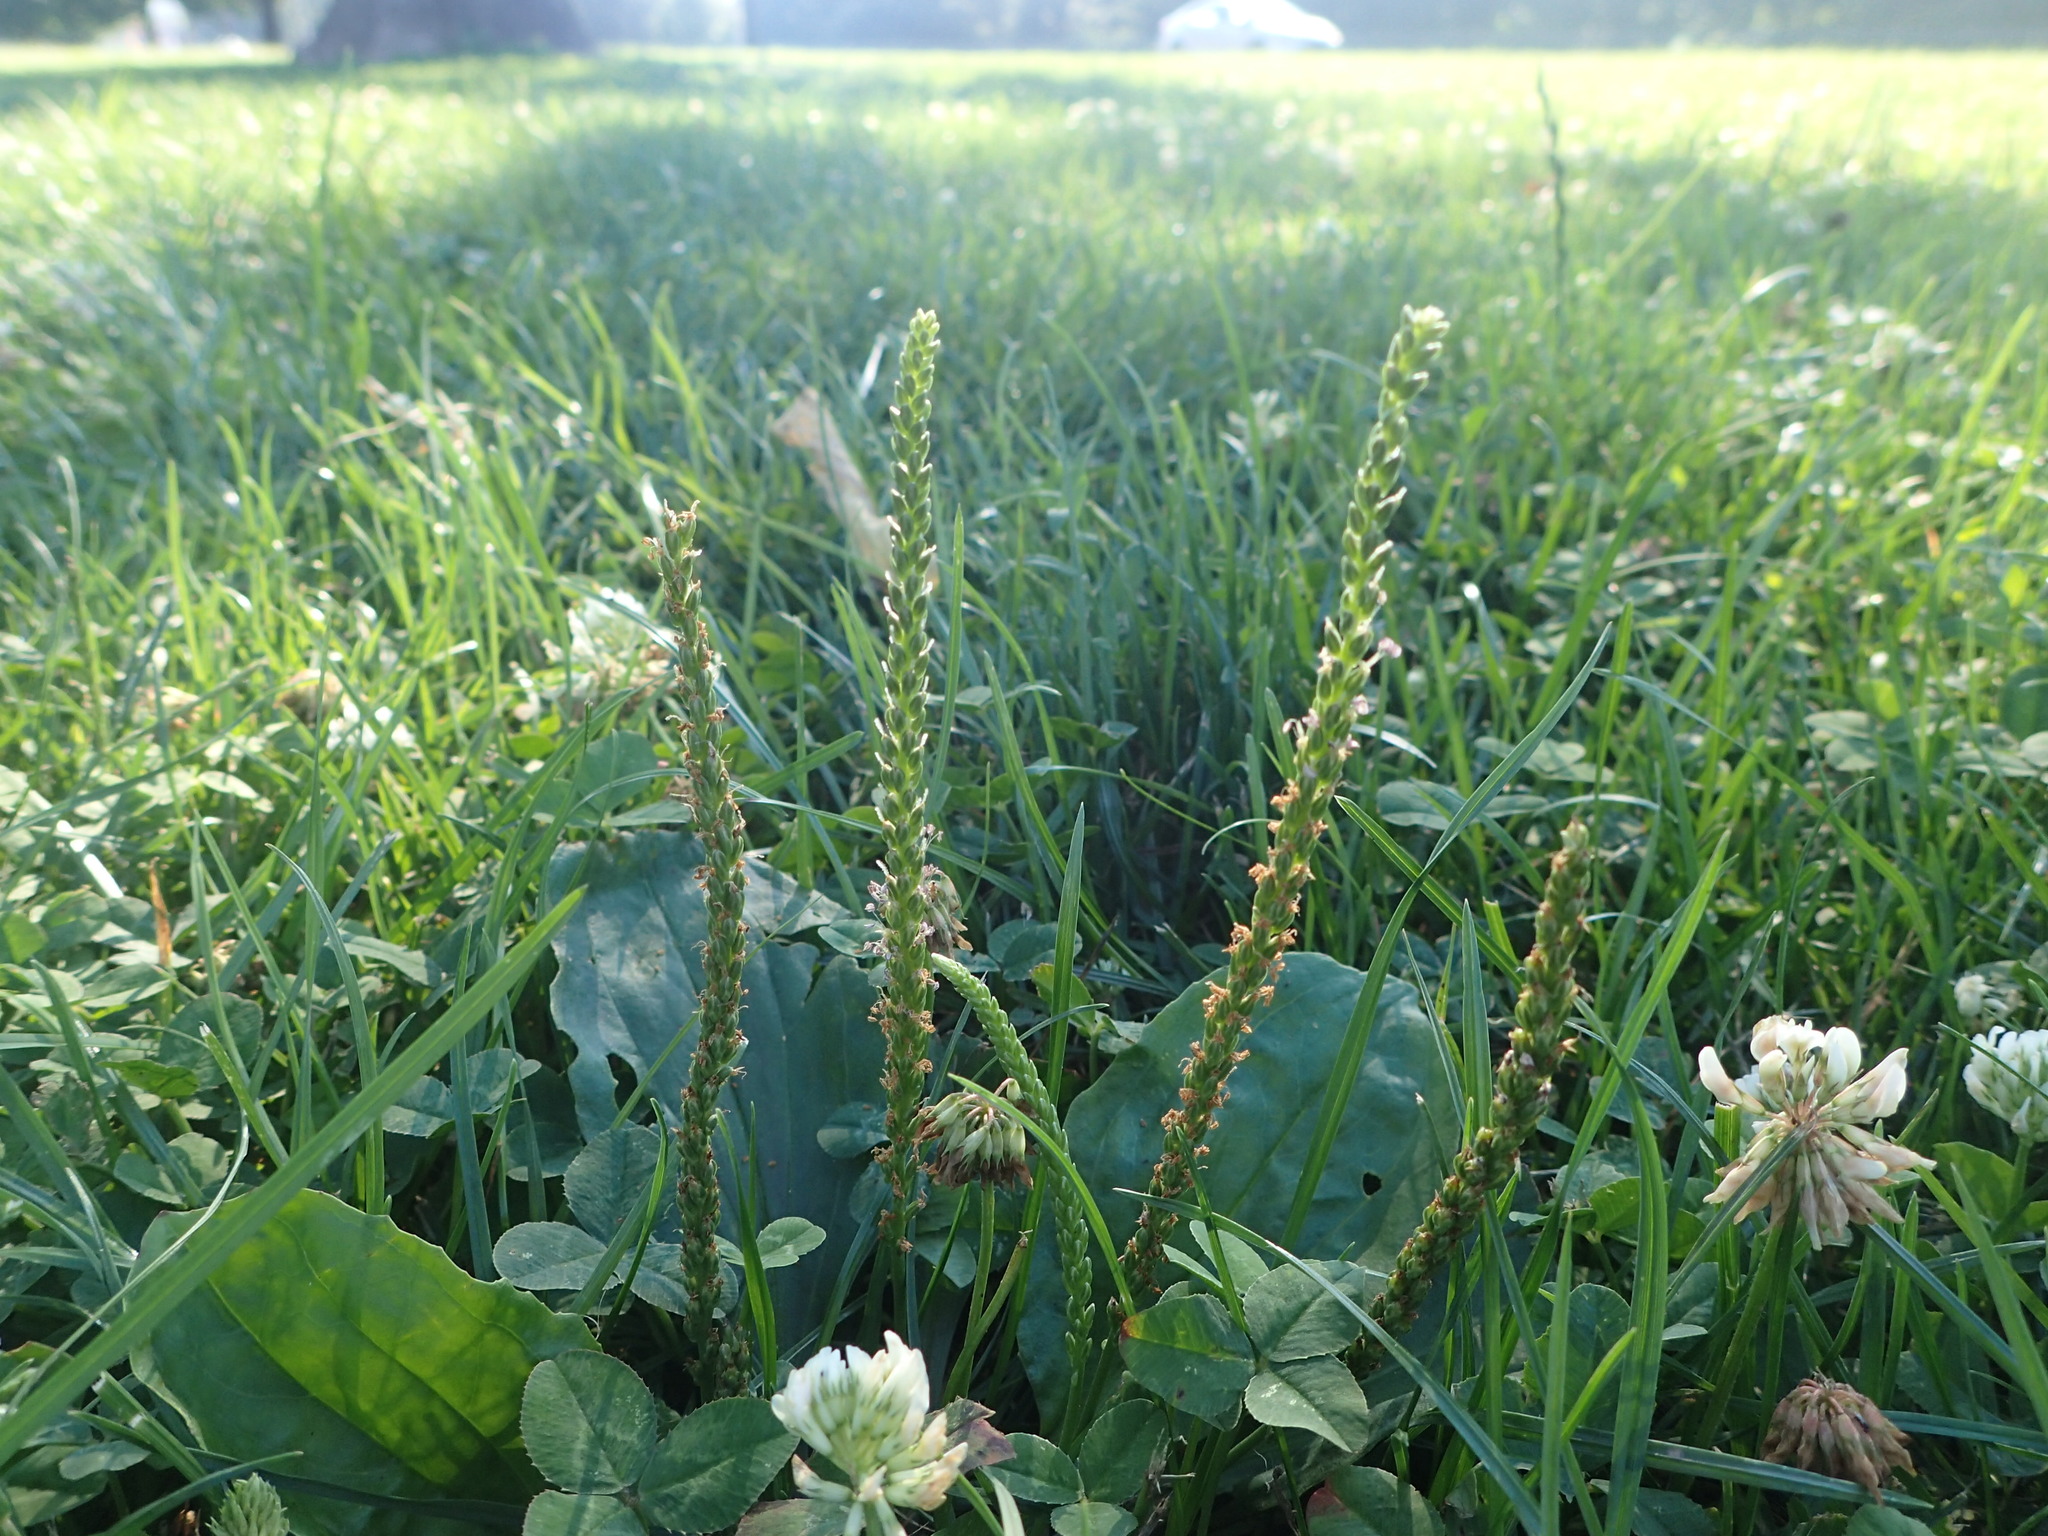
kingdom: Plantae
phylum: Tracheophyta
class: Magnoliopsida
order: Lamiales
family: Plantaginaceae
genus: Plantago
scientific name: Plantago major
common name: Common plantain
